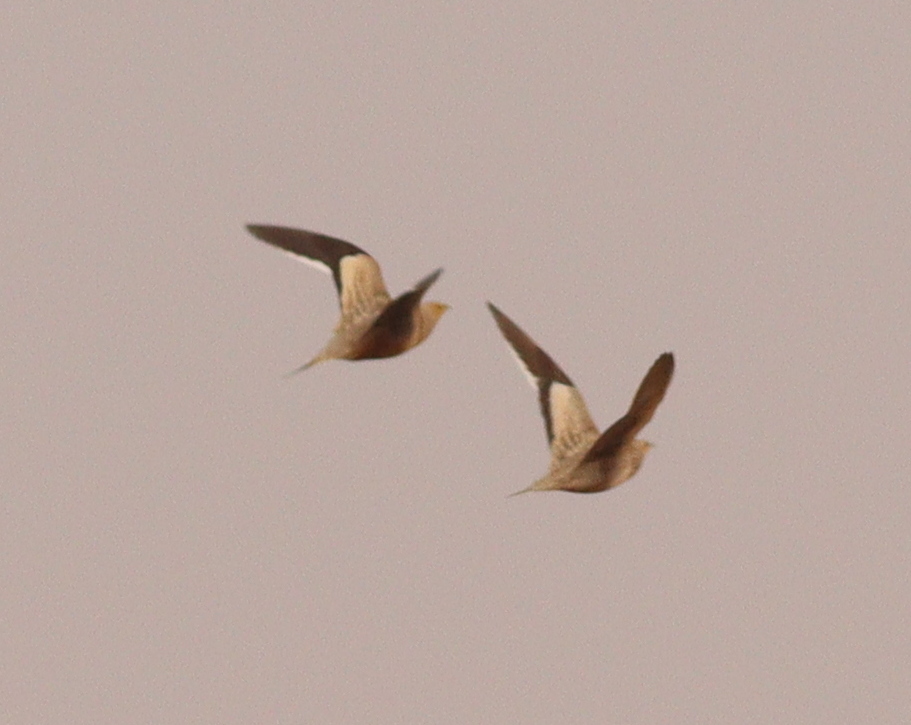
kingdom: Animalia
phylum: Chordata
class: Aves
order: Pteroclidiformes
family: Pteroclididae
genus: Pterocles
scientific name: Pterocles exustus
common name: Chestnut-bellied sandgrouse
